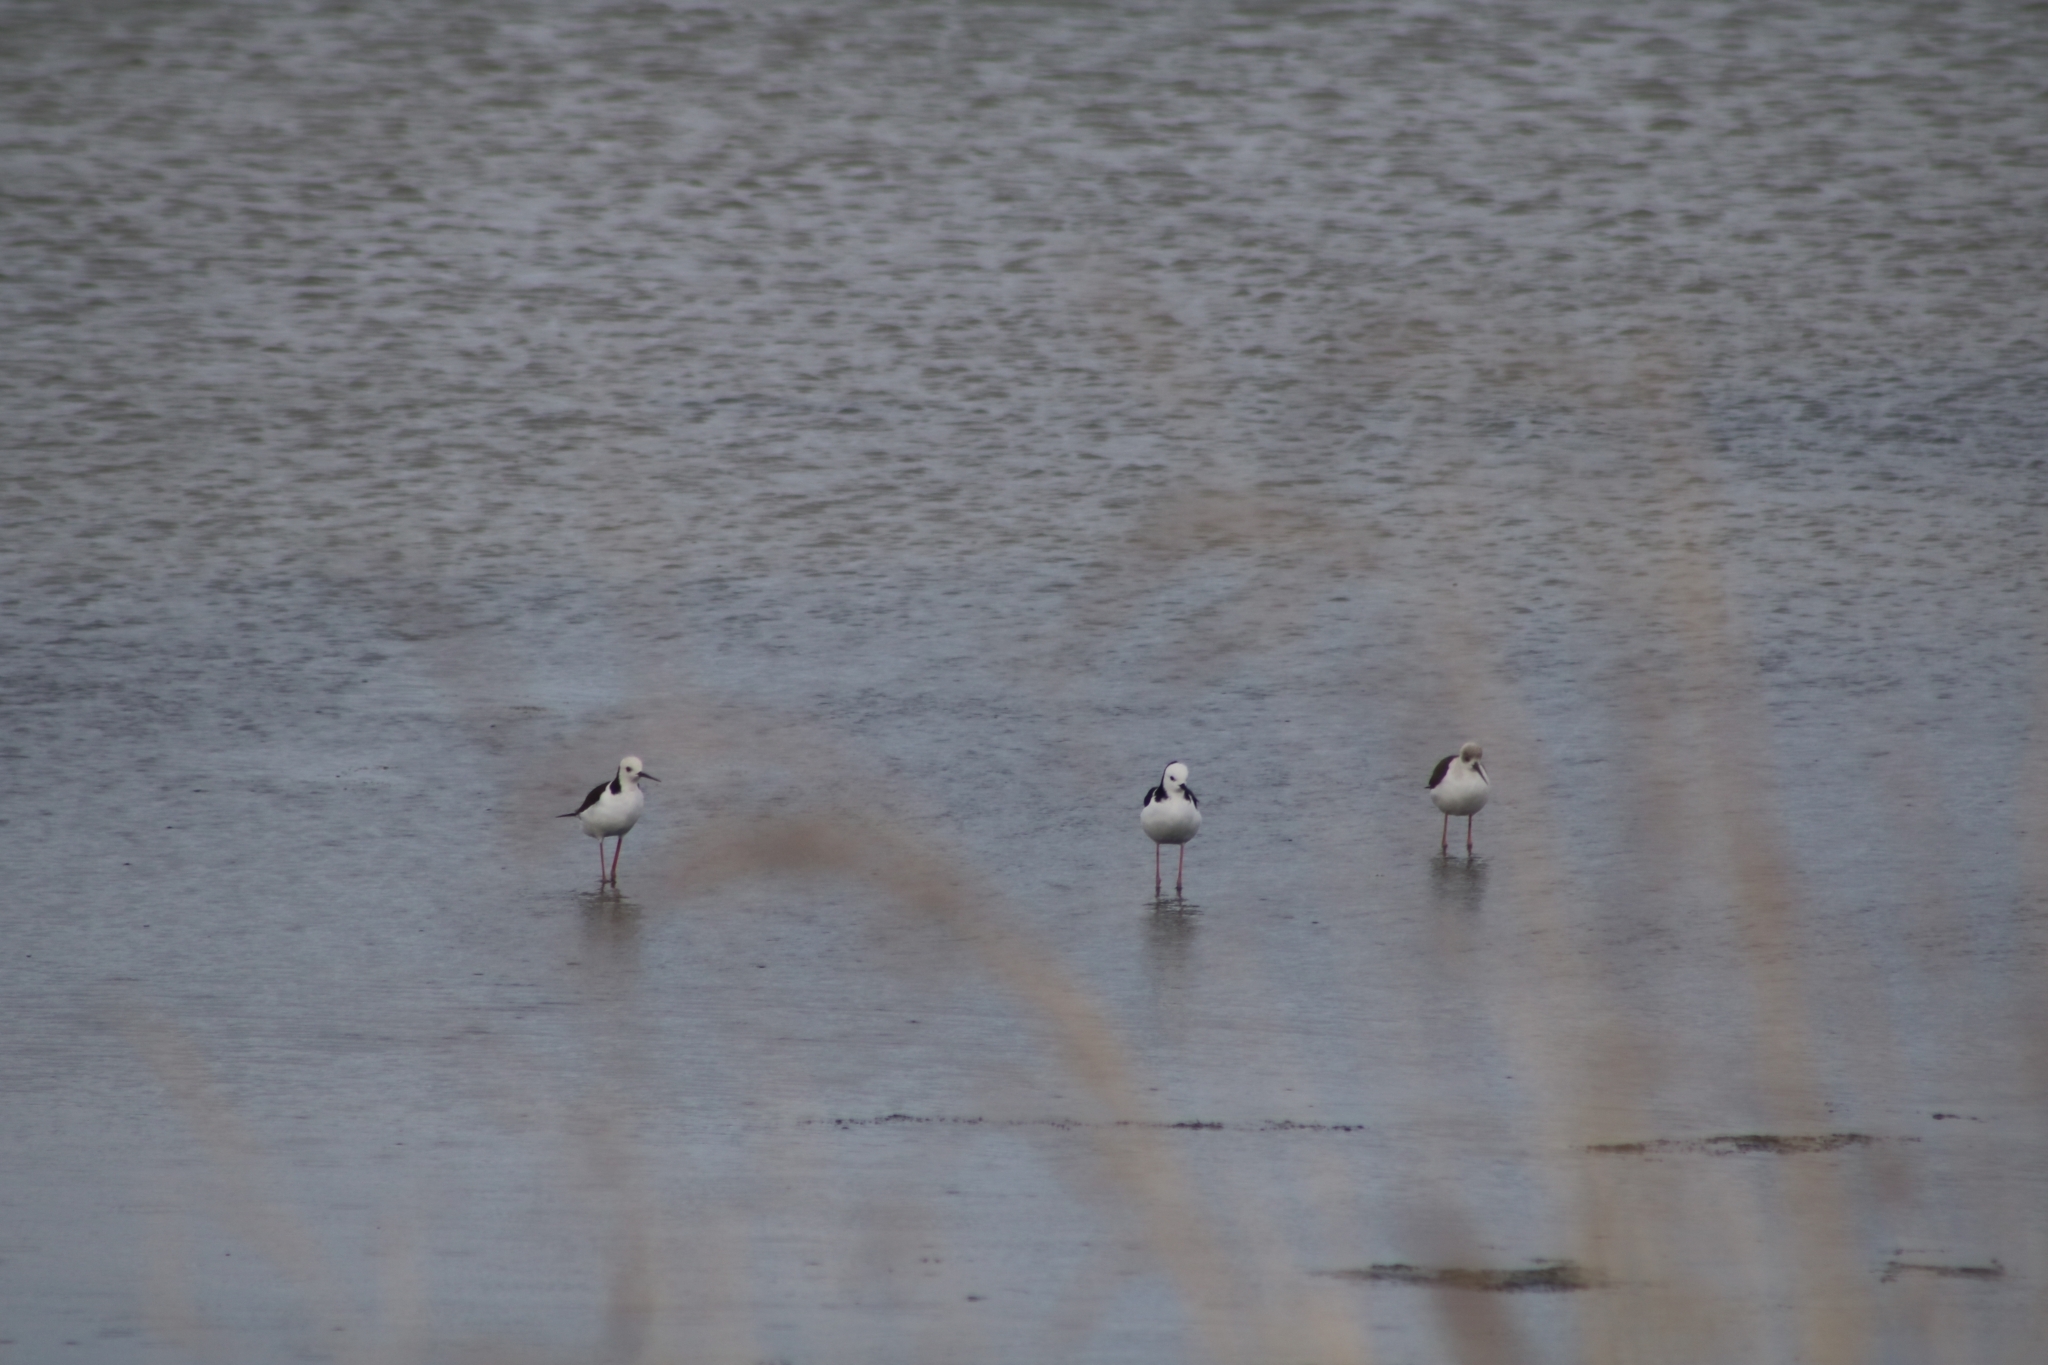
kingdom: Animalia
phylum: Chordata
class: Aves
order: Charadriiformes
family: Recurvirostridae
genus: Himantopus
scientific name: Himantopus leucocephalus
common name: White-headed stilt
